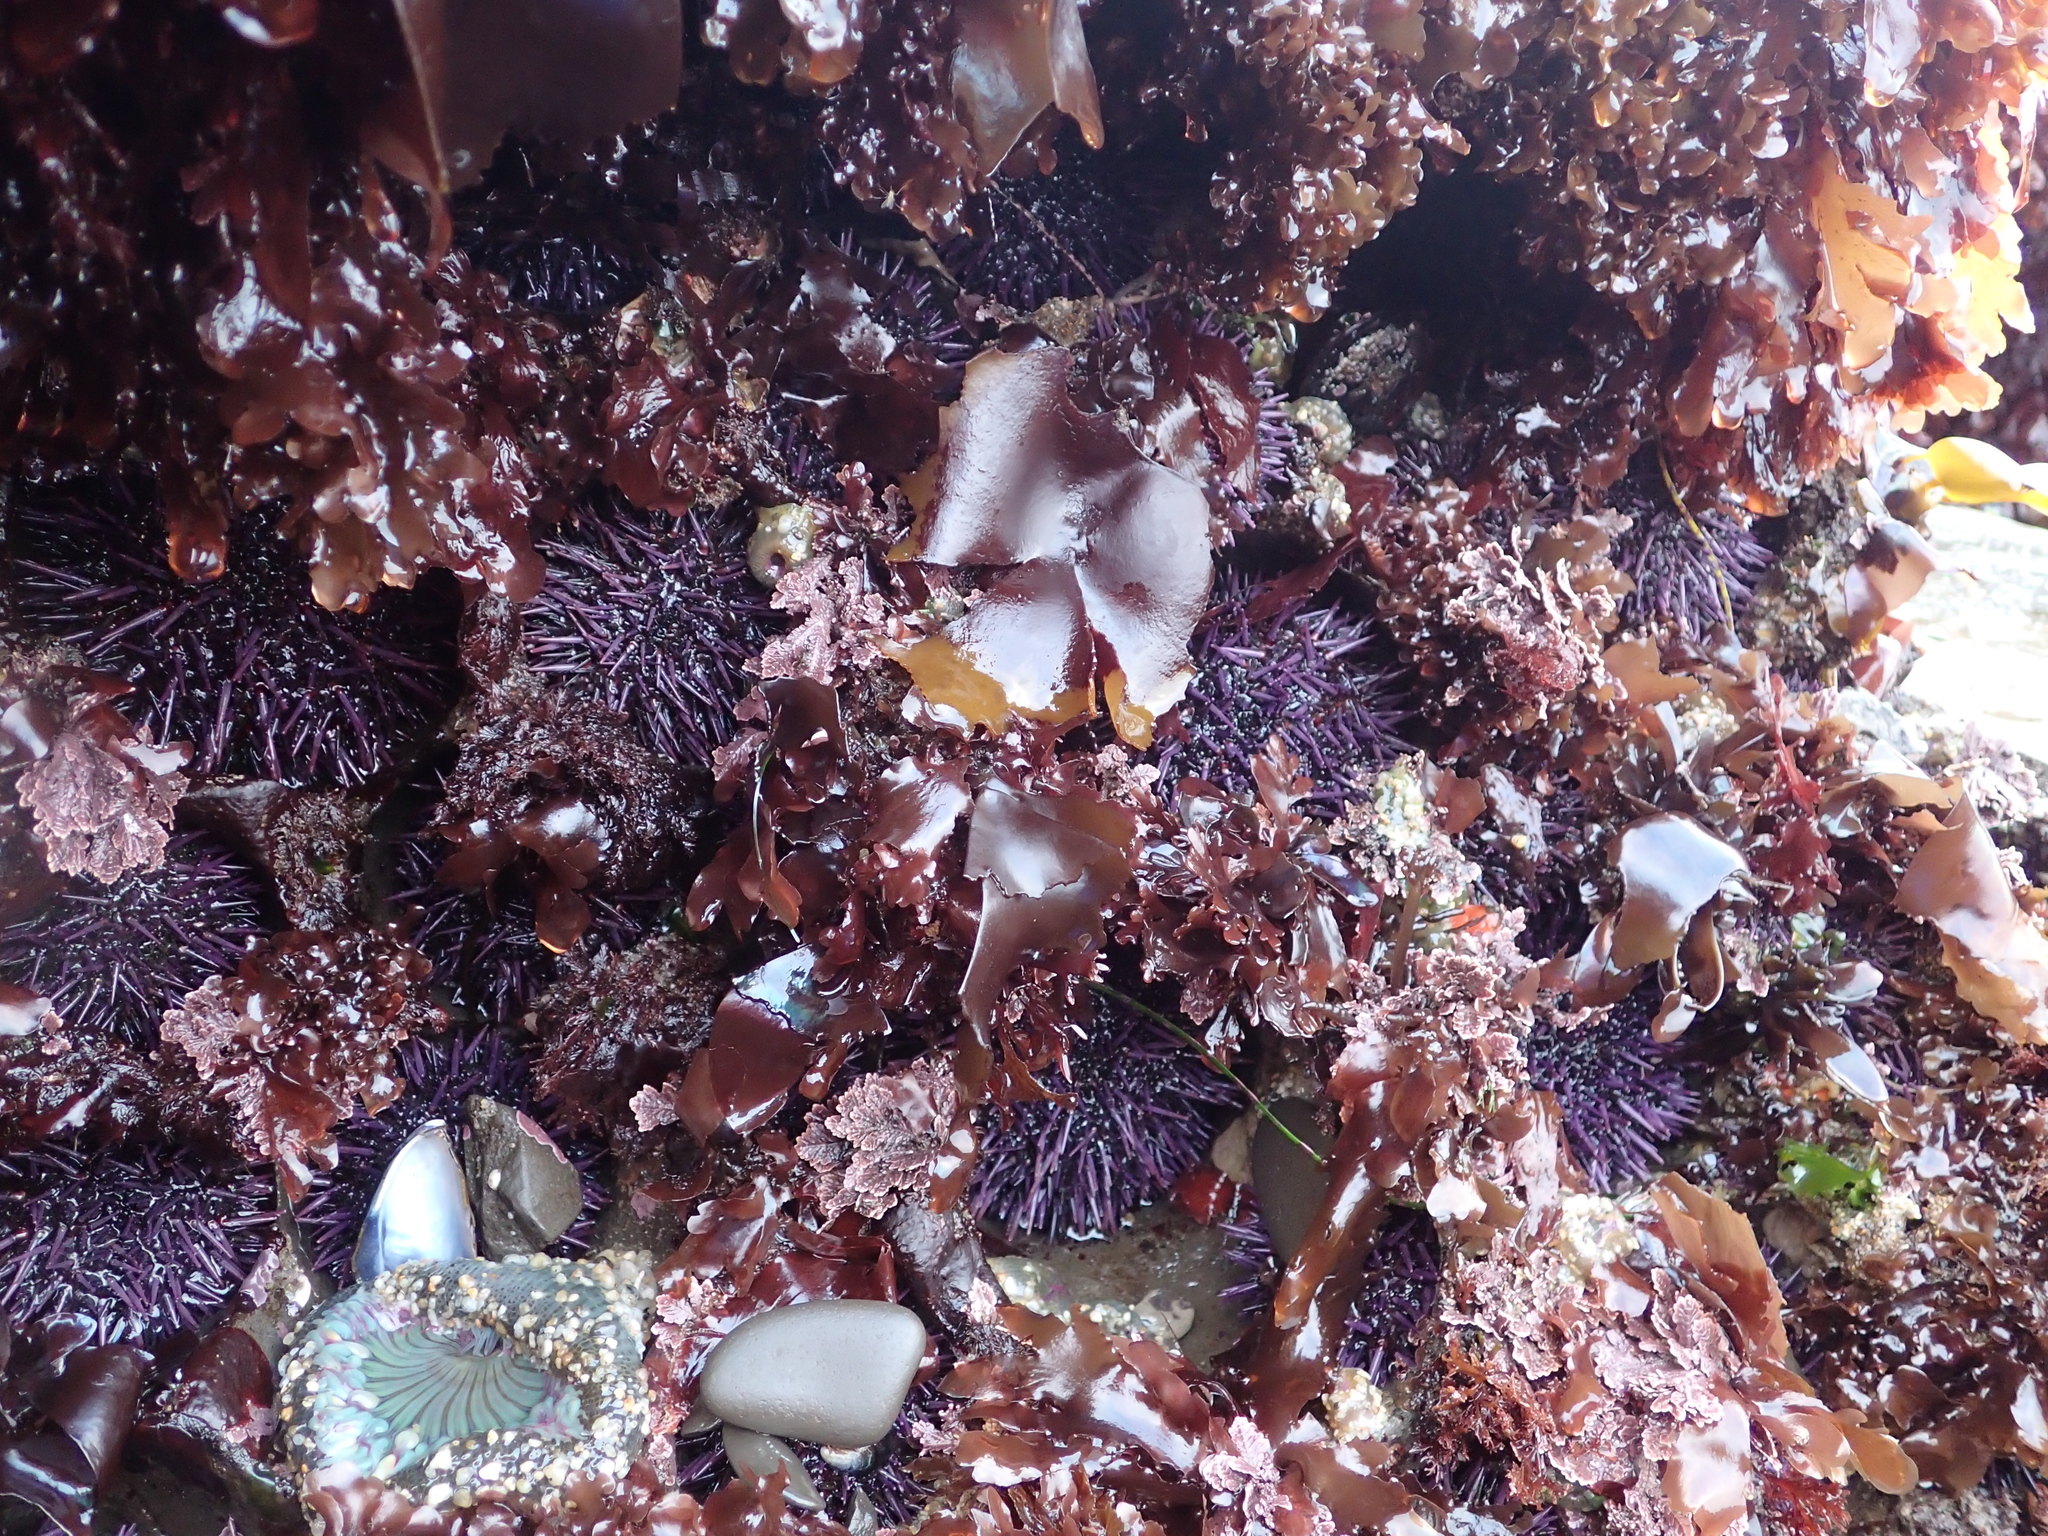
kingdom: Animalia
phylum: Echinodermata
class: Echinoidea
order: Camarodonta
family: Strongylocentrotidae
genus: Strongylocentrotus
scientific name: Strongylocentrotus purpuratus
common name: Purple sea urchin
